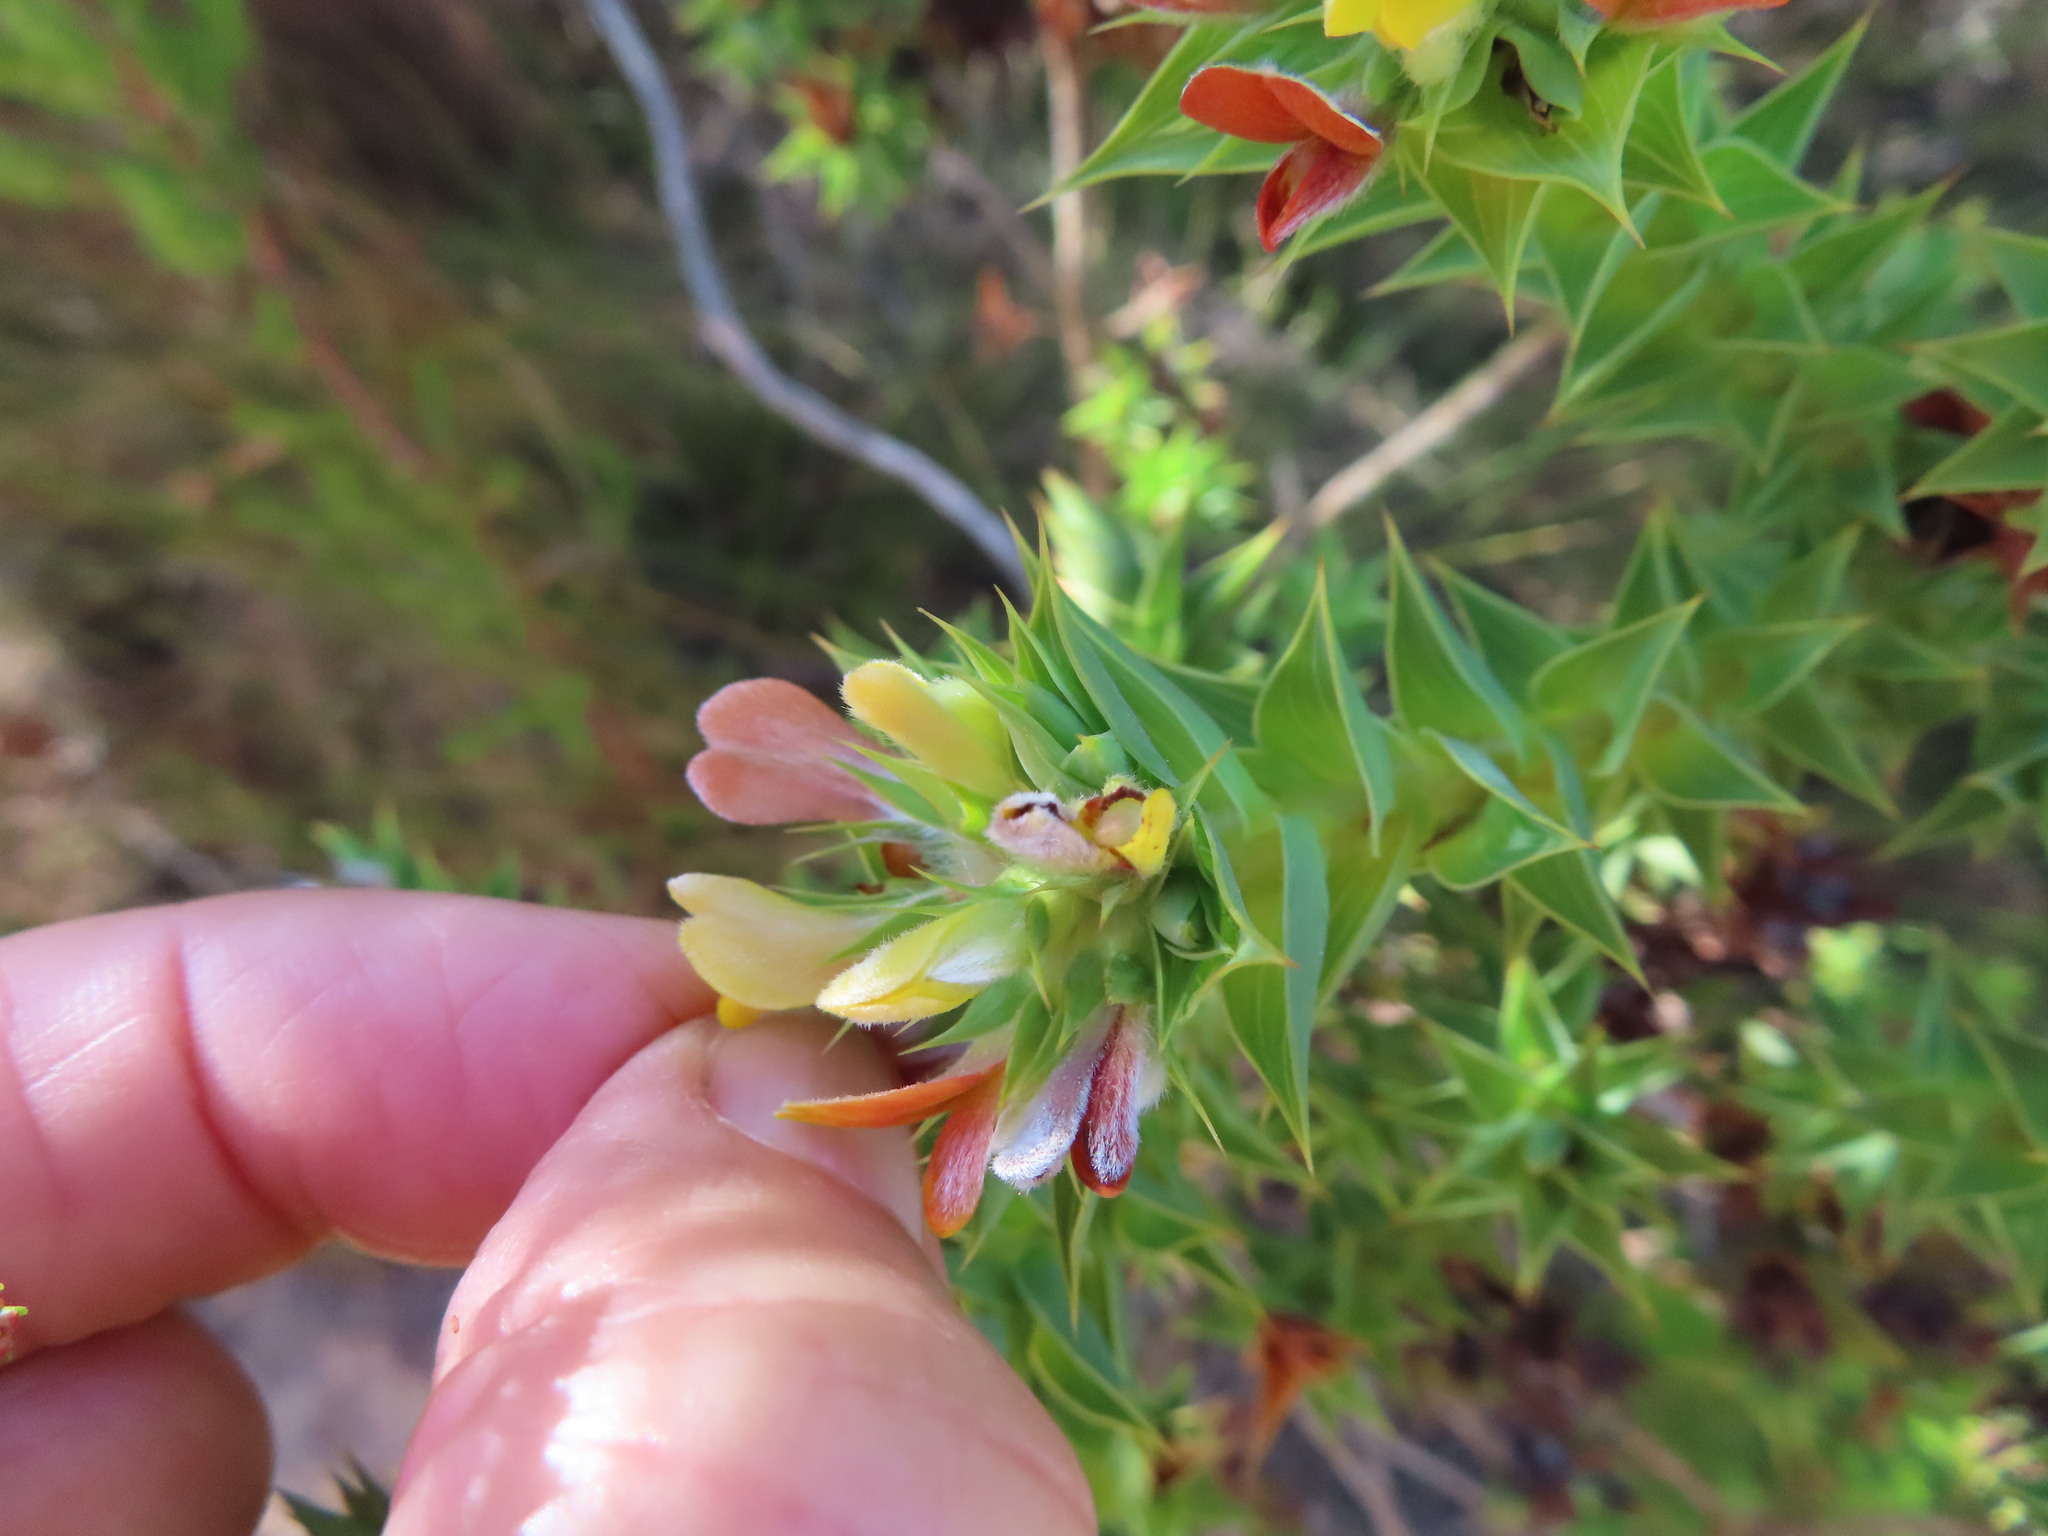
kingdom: Plantae
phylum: Tracheophyta
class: Magnoliopsida
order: Fabales
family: Fabaceae
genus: Aspalathus
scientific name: Aspalathus cordata
